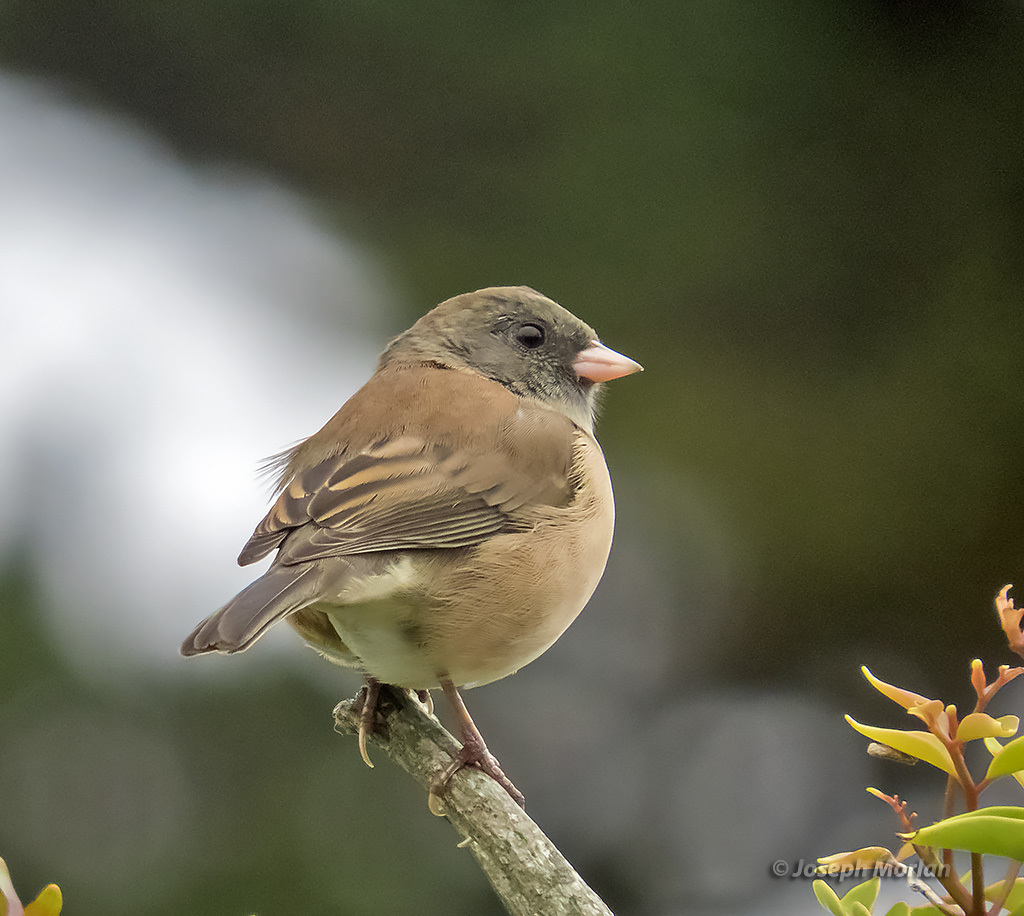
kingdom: Animalia
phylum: Chordata
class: Aves
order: Passeriformes
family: Passerellidae
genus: Junco
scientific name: Junco hyemalis
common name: Dark-eyed junco
